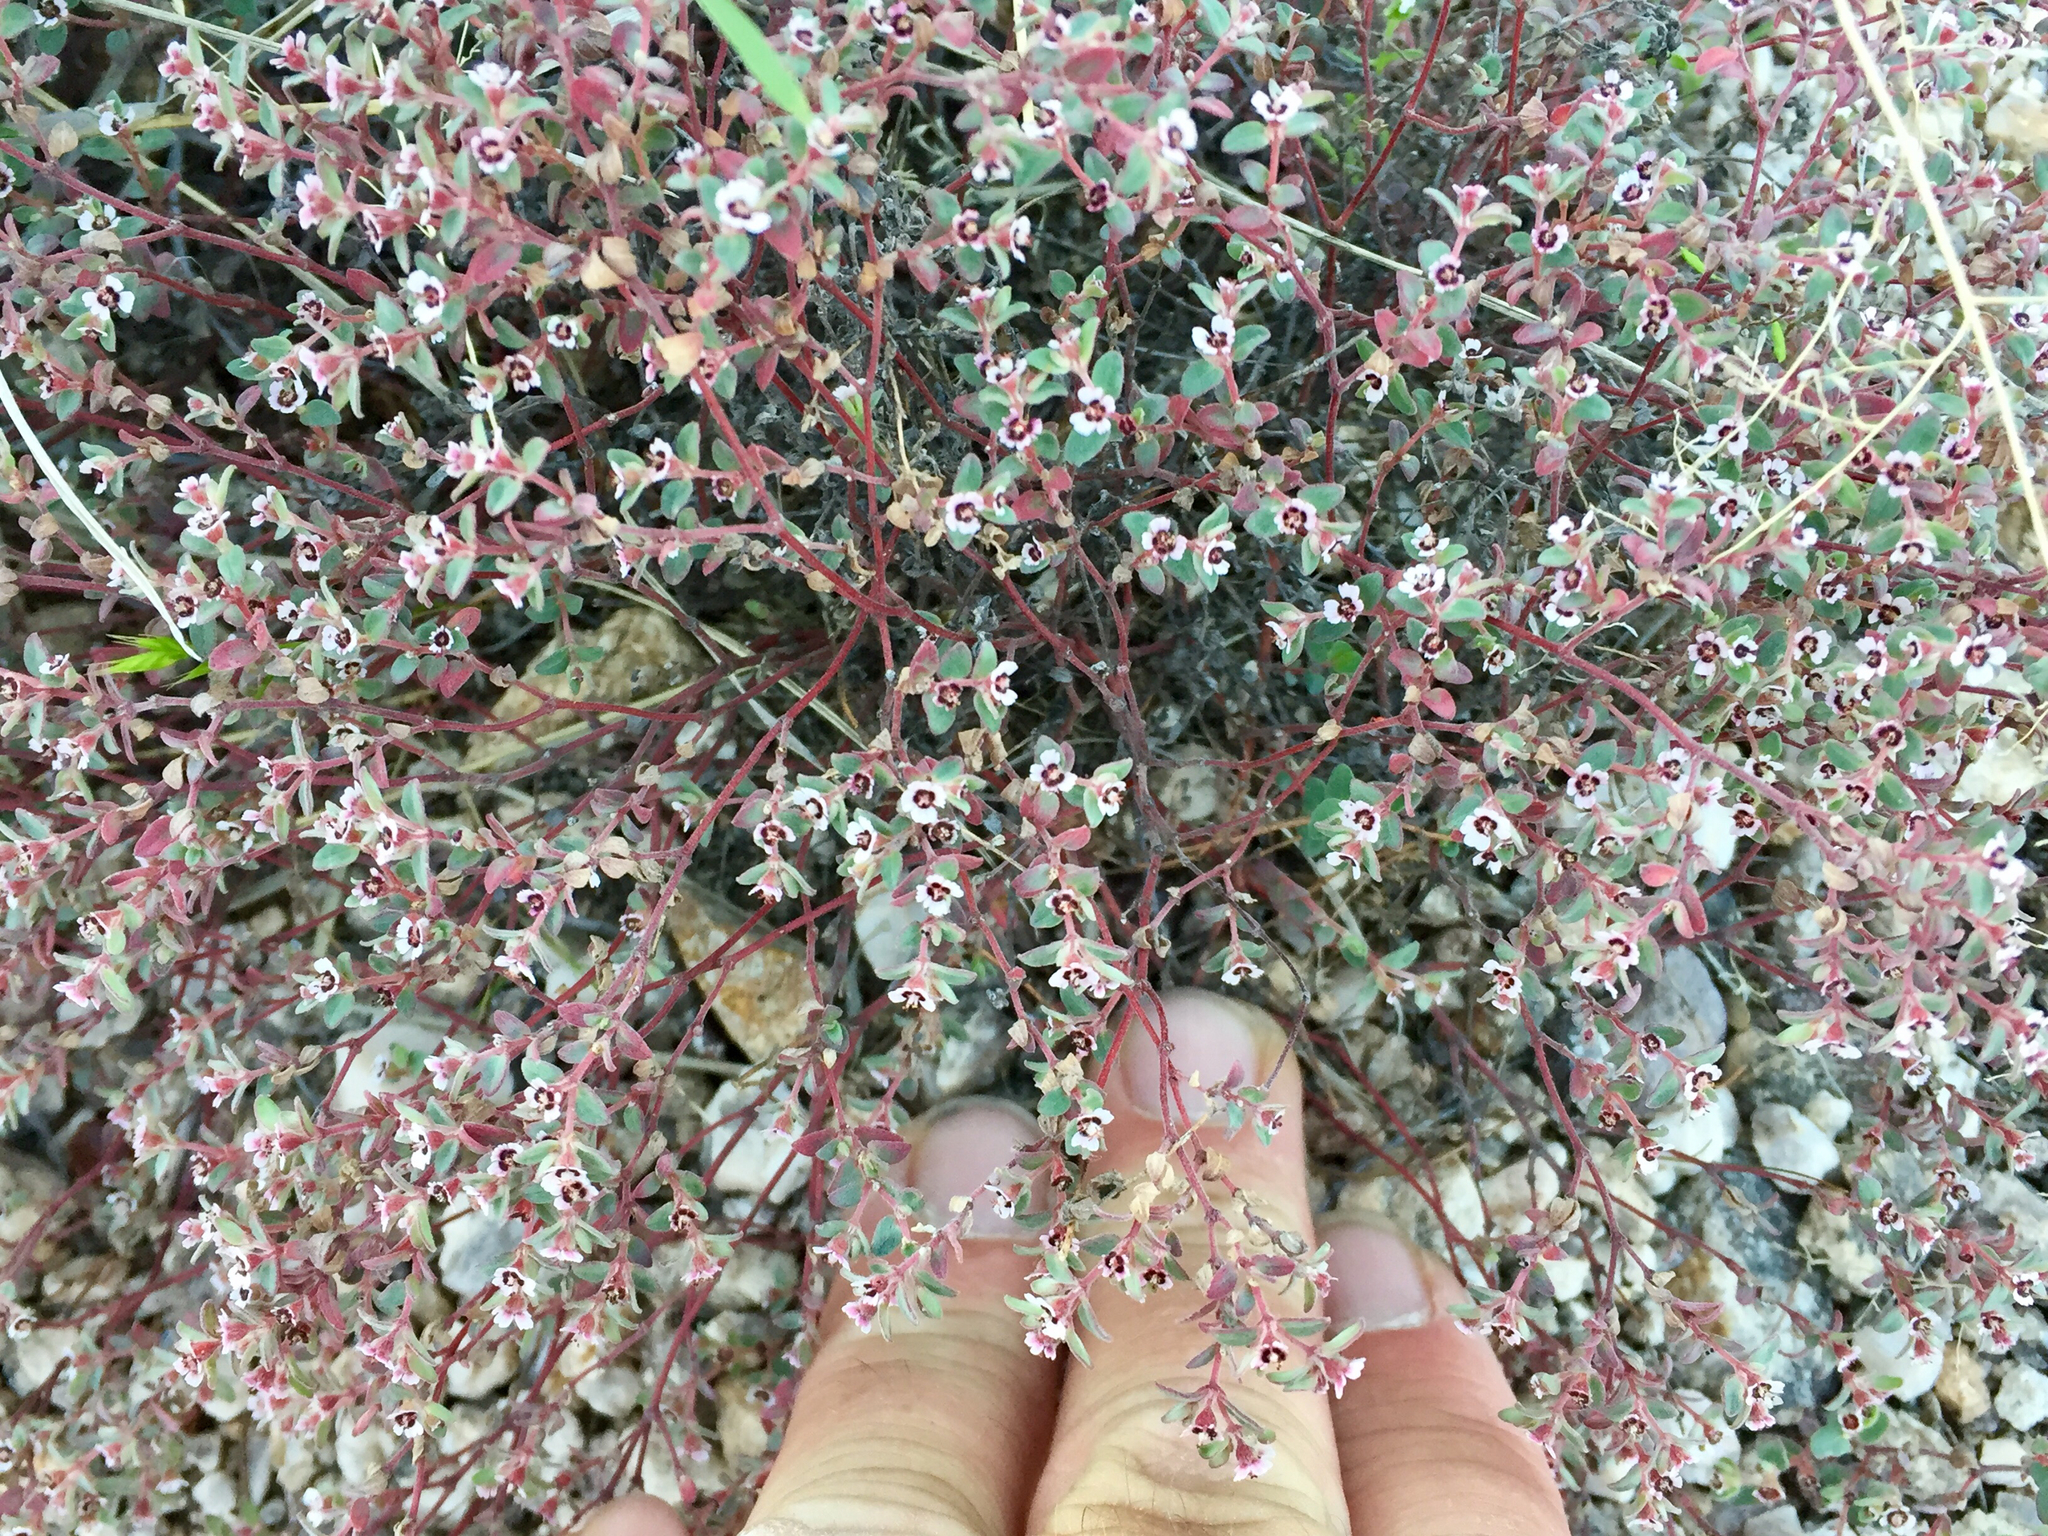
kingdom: Plantae
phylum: Tracheophyta
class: Magnoliopsida
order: Malpighiales
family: Euphorbiaceae
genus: Euphorbia
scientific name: Euphorbia melanadenia
